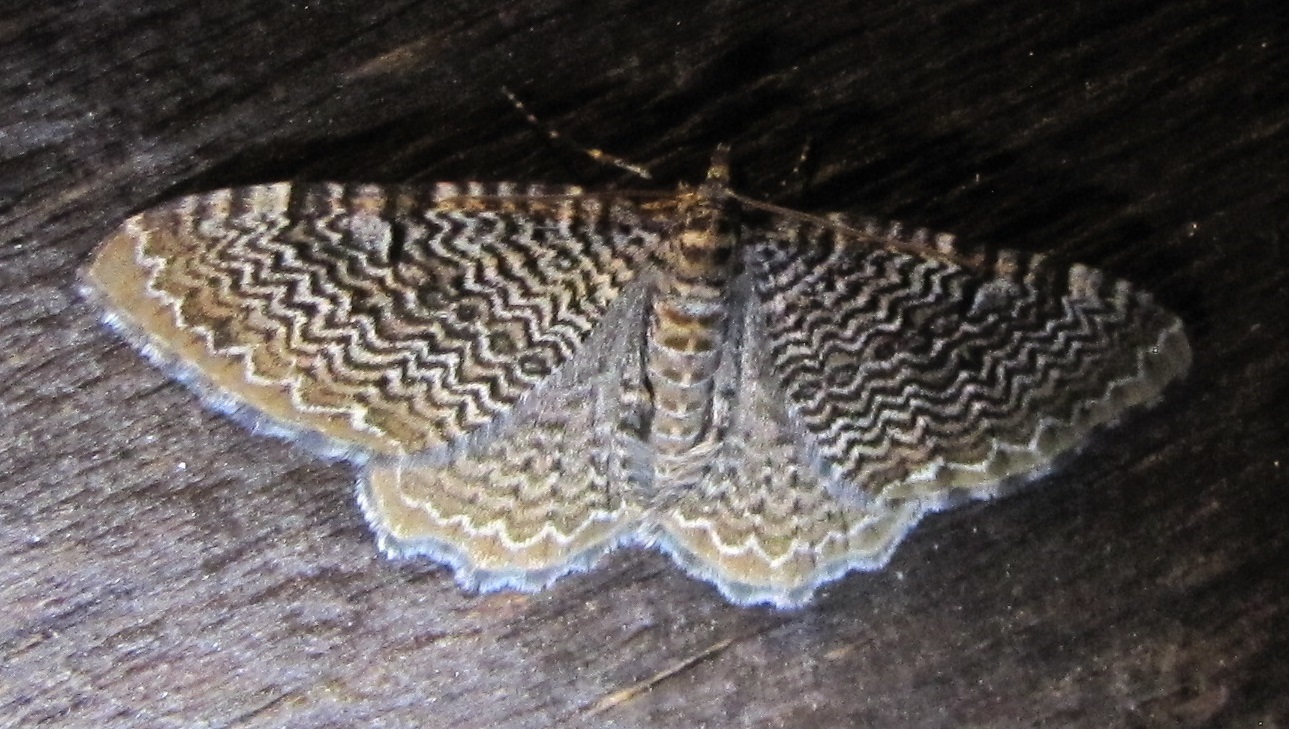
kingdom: Animalia
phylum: Arthropoda
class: Insecta
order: Lepidoptera
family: Geometridae
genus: Rheumaptera
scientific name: Rheumaptera prunivorata
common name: Cherry scallop shell moth
